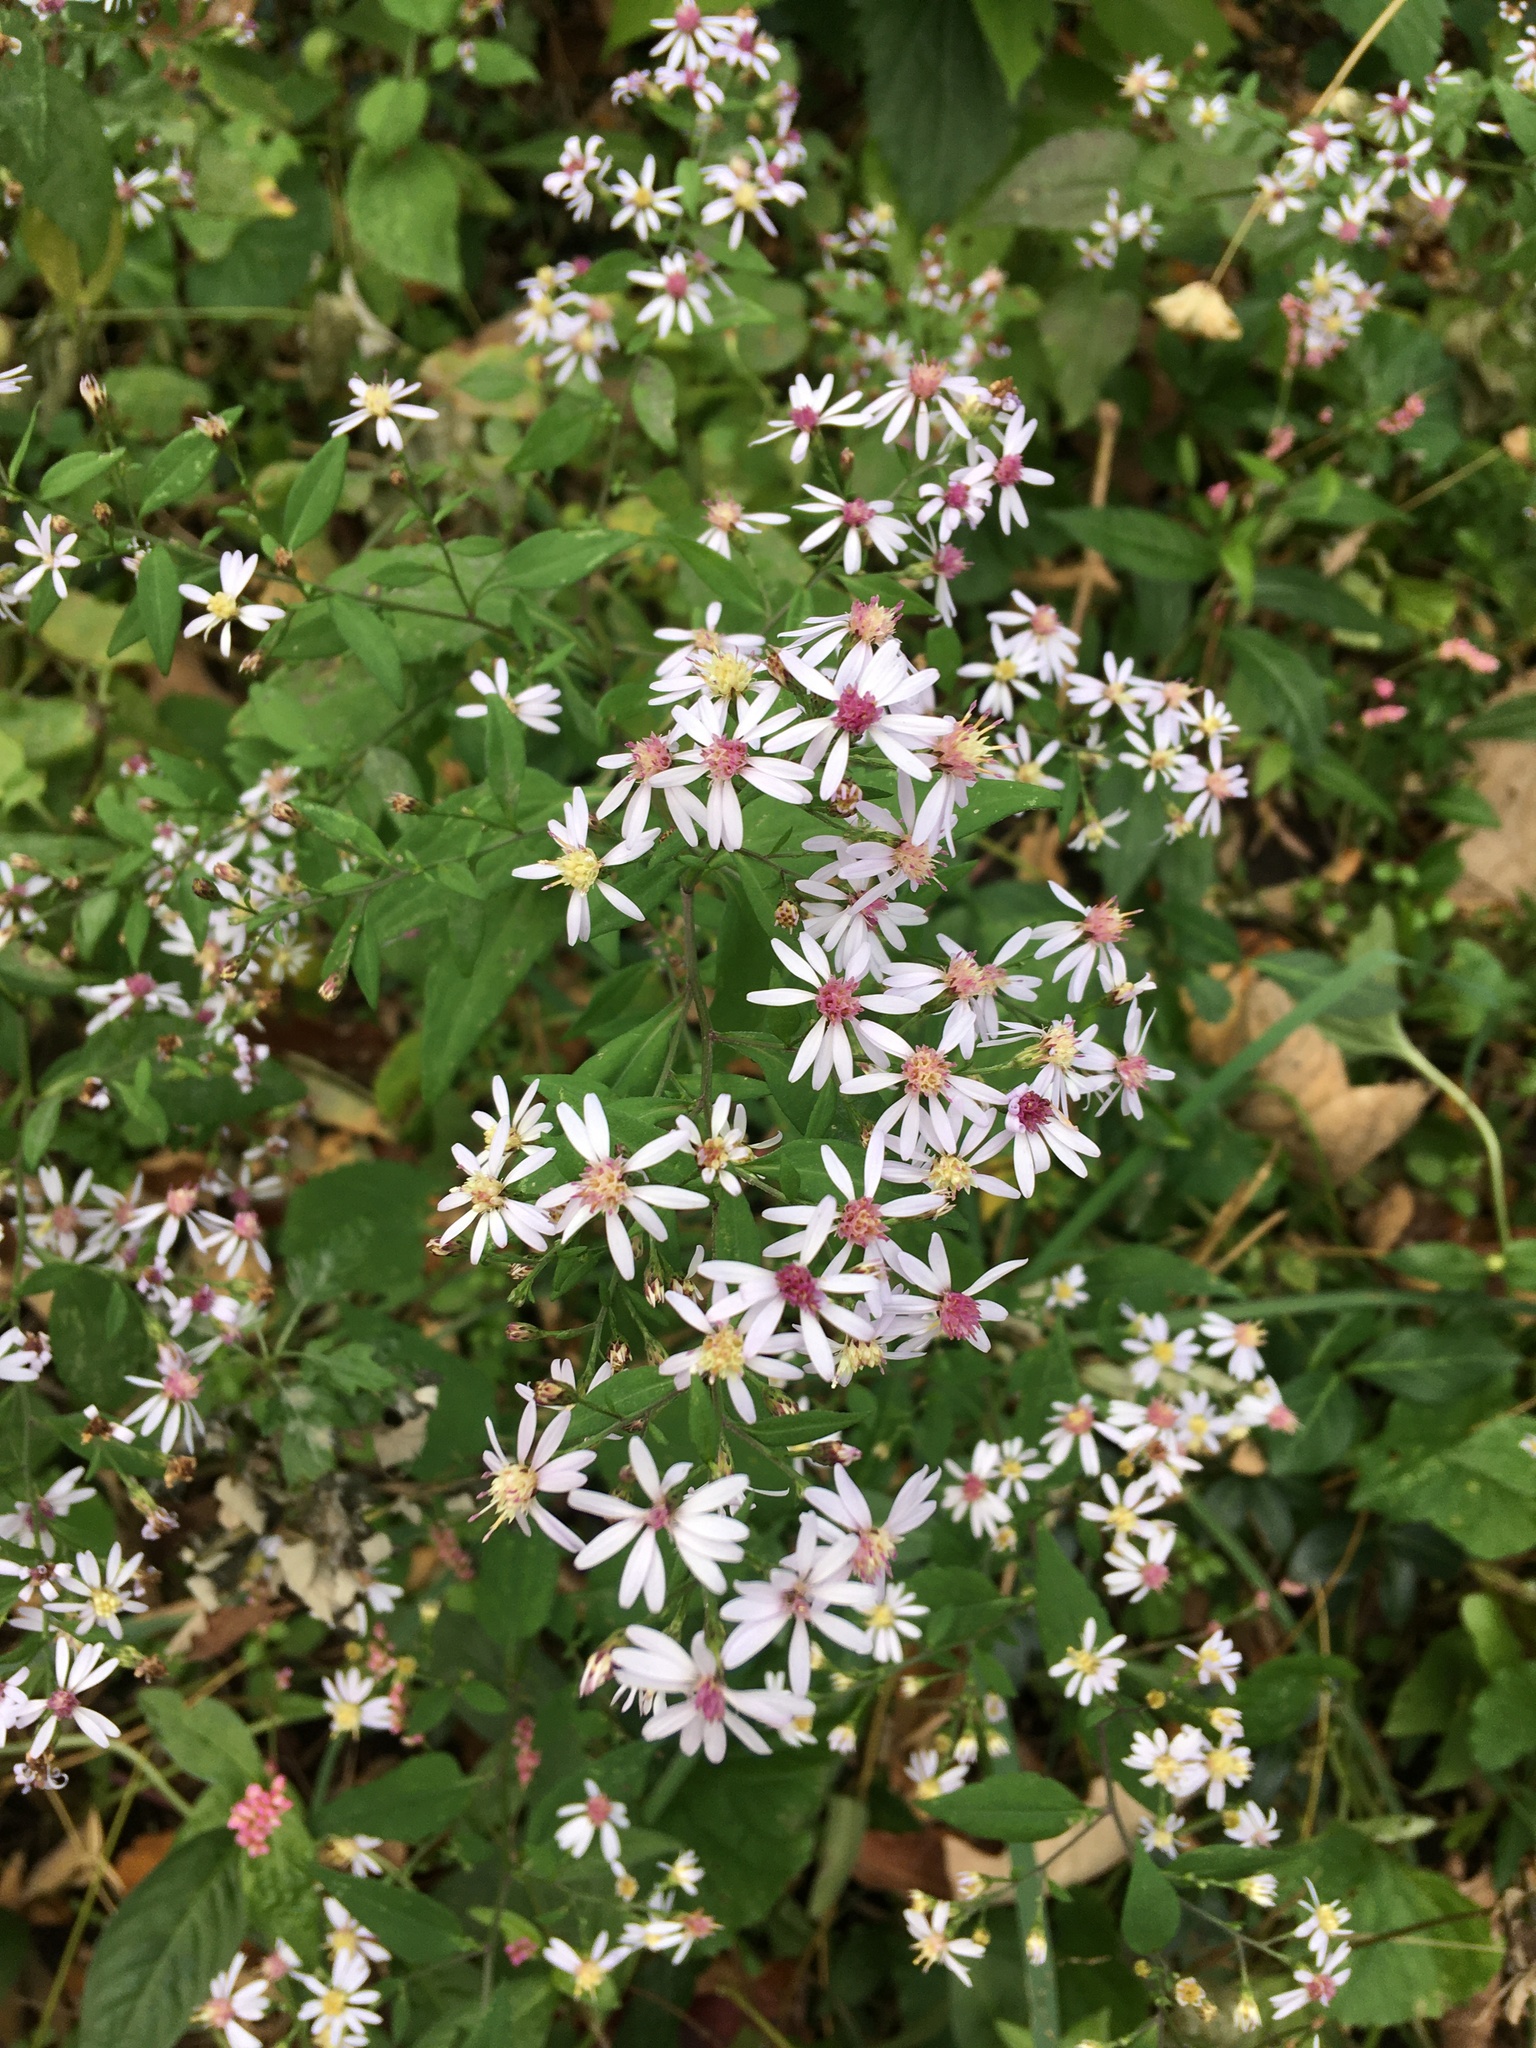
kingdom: Plantae
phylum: Tracheophyta
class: Magnoliopsida
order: Asterales
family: Asteraceae
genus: Symphyotrichum
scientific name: Symphyotrichum cordifolium
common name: Beeweed
